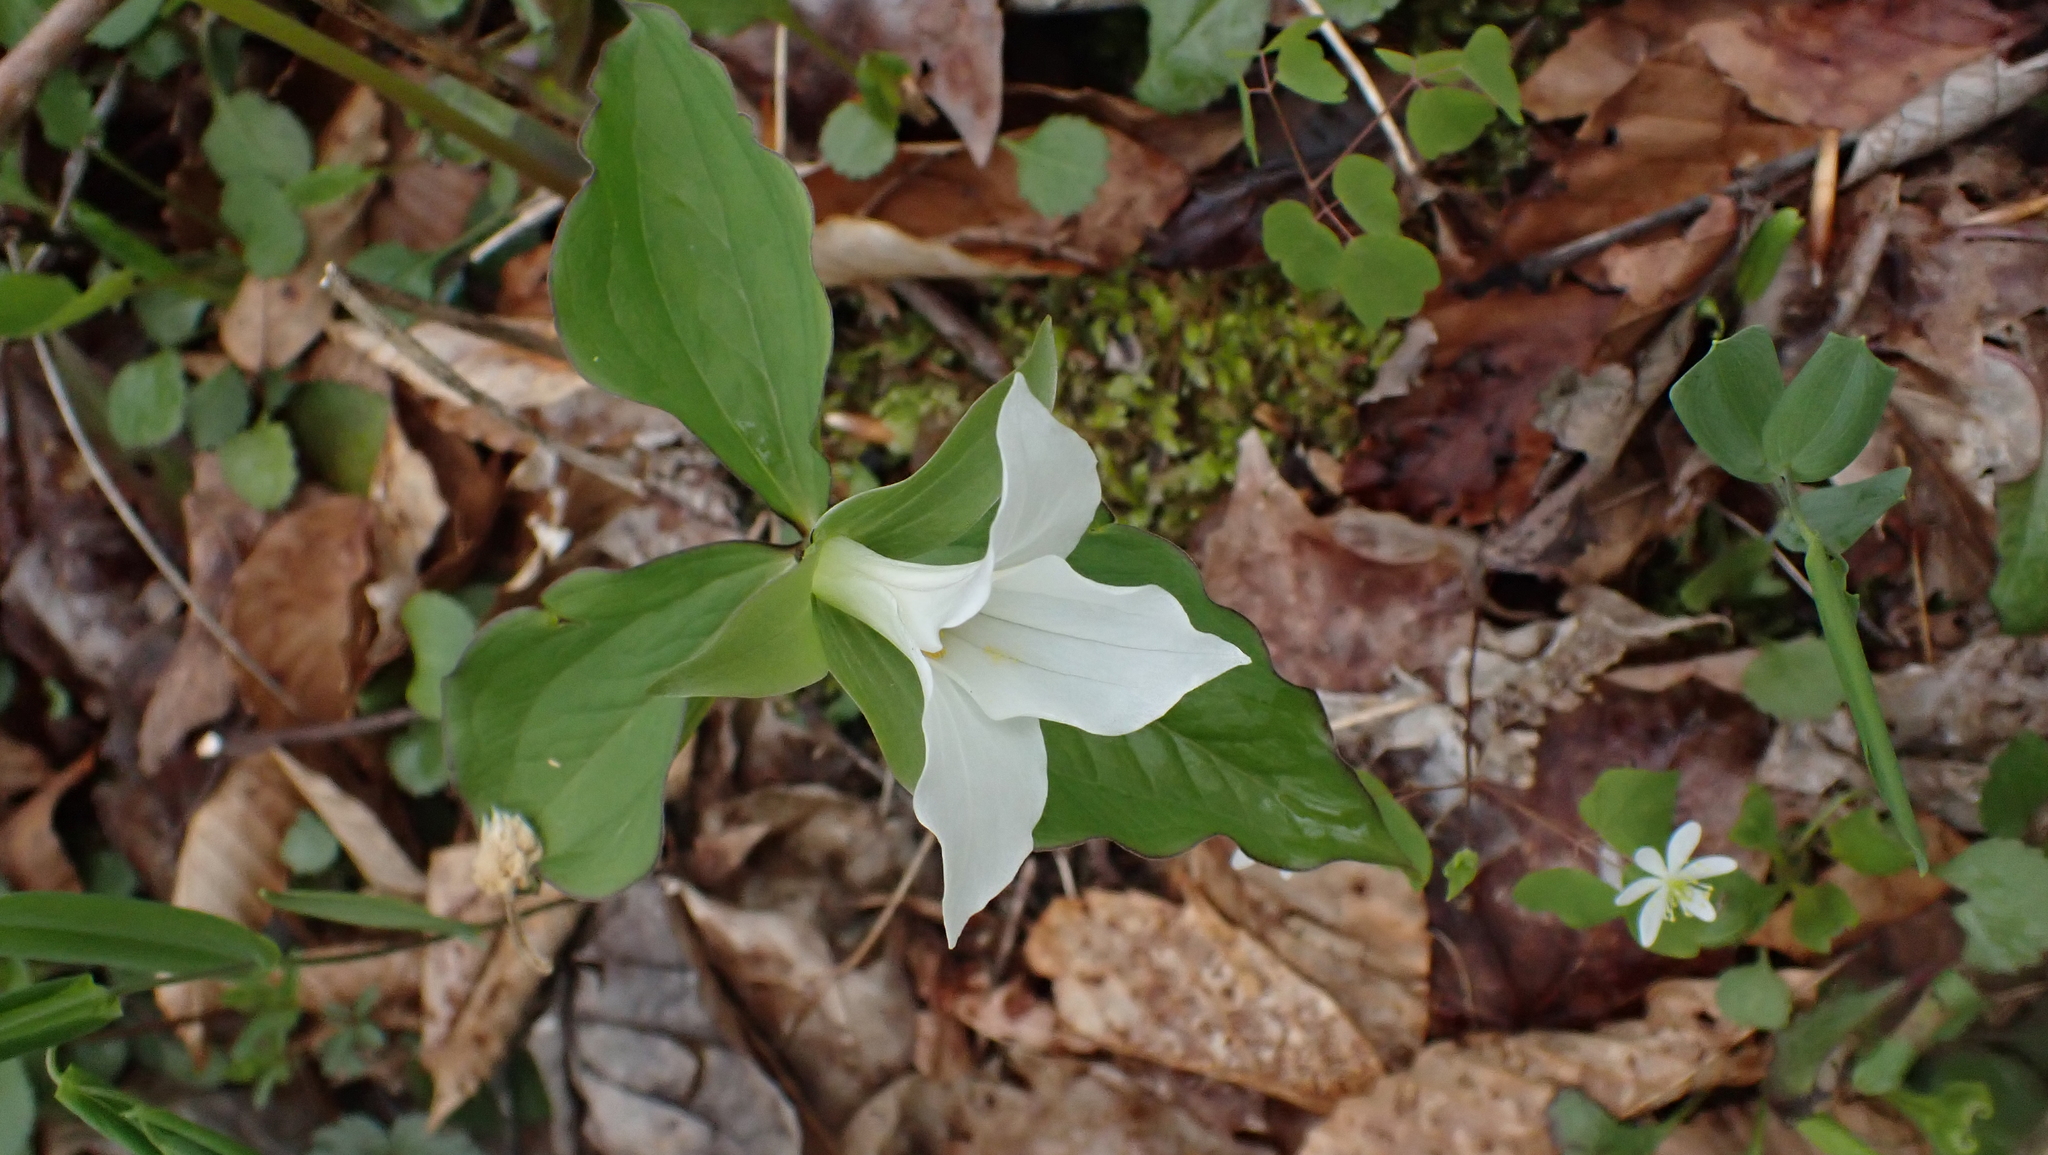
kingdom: Plantae
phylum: Tracheophyta
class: Liliopsida
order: Liliales
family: Melanthiaceae
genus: Trillium
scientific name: Trillium grandiflorum
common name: Great white trillium
